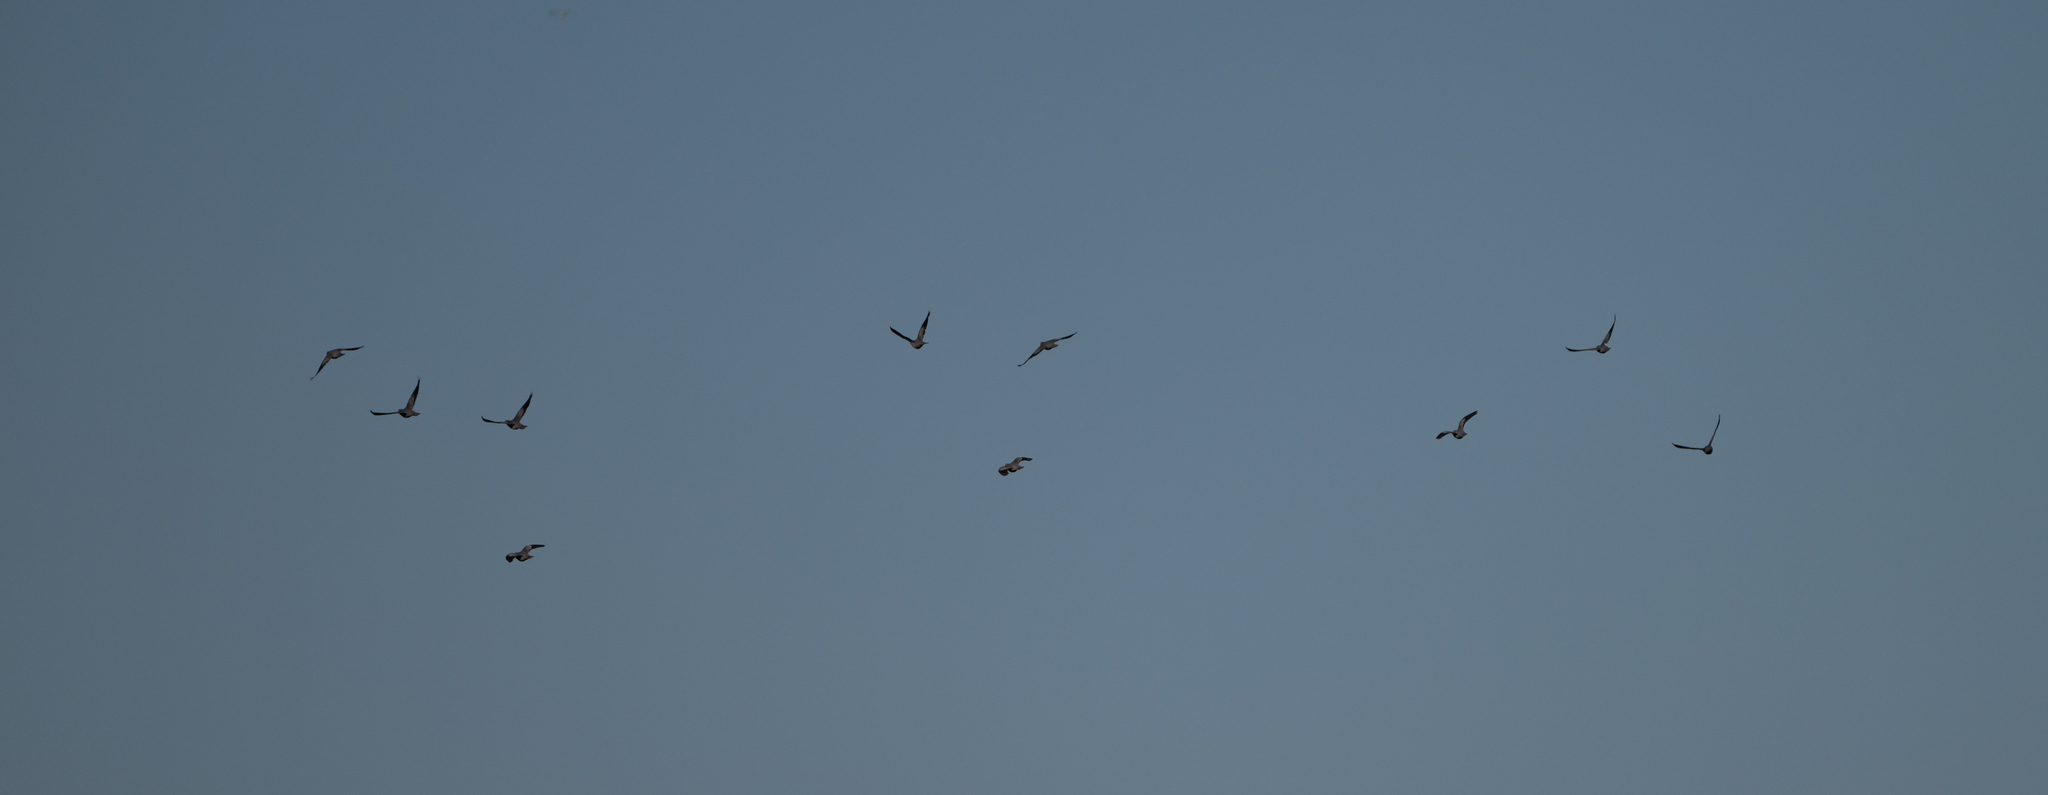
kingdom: Animalia
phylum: Chordata
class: Aves
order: Columbiformes
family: Columbidae
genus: Patagioenas
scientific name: Patagioenas fasciata
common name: Band-tailed pigeon
